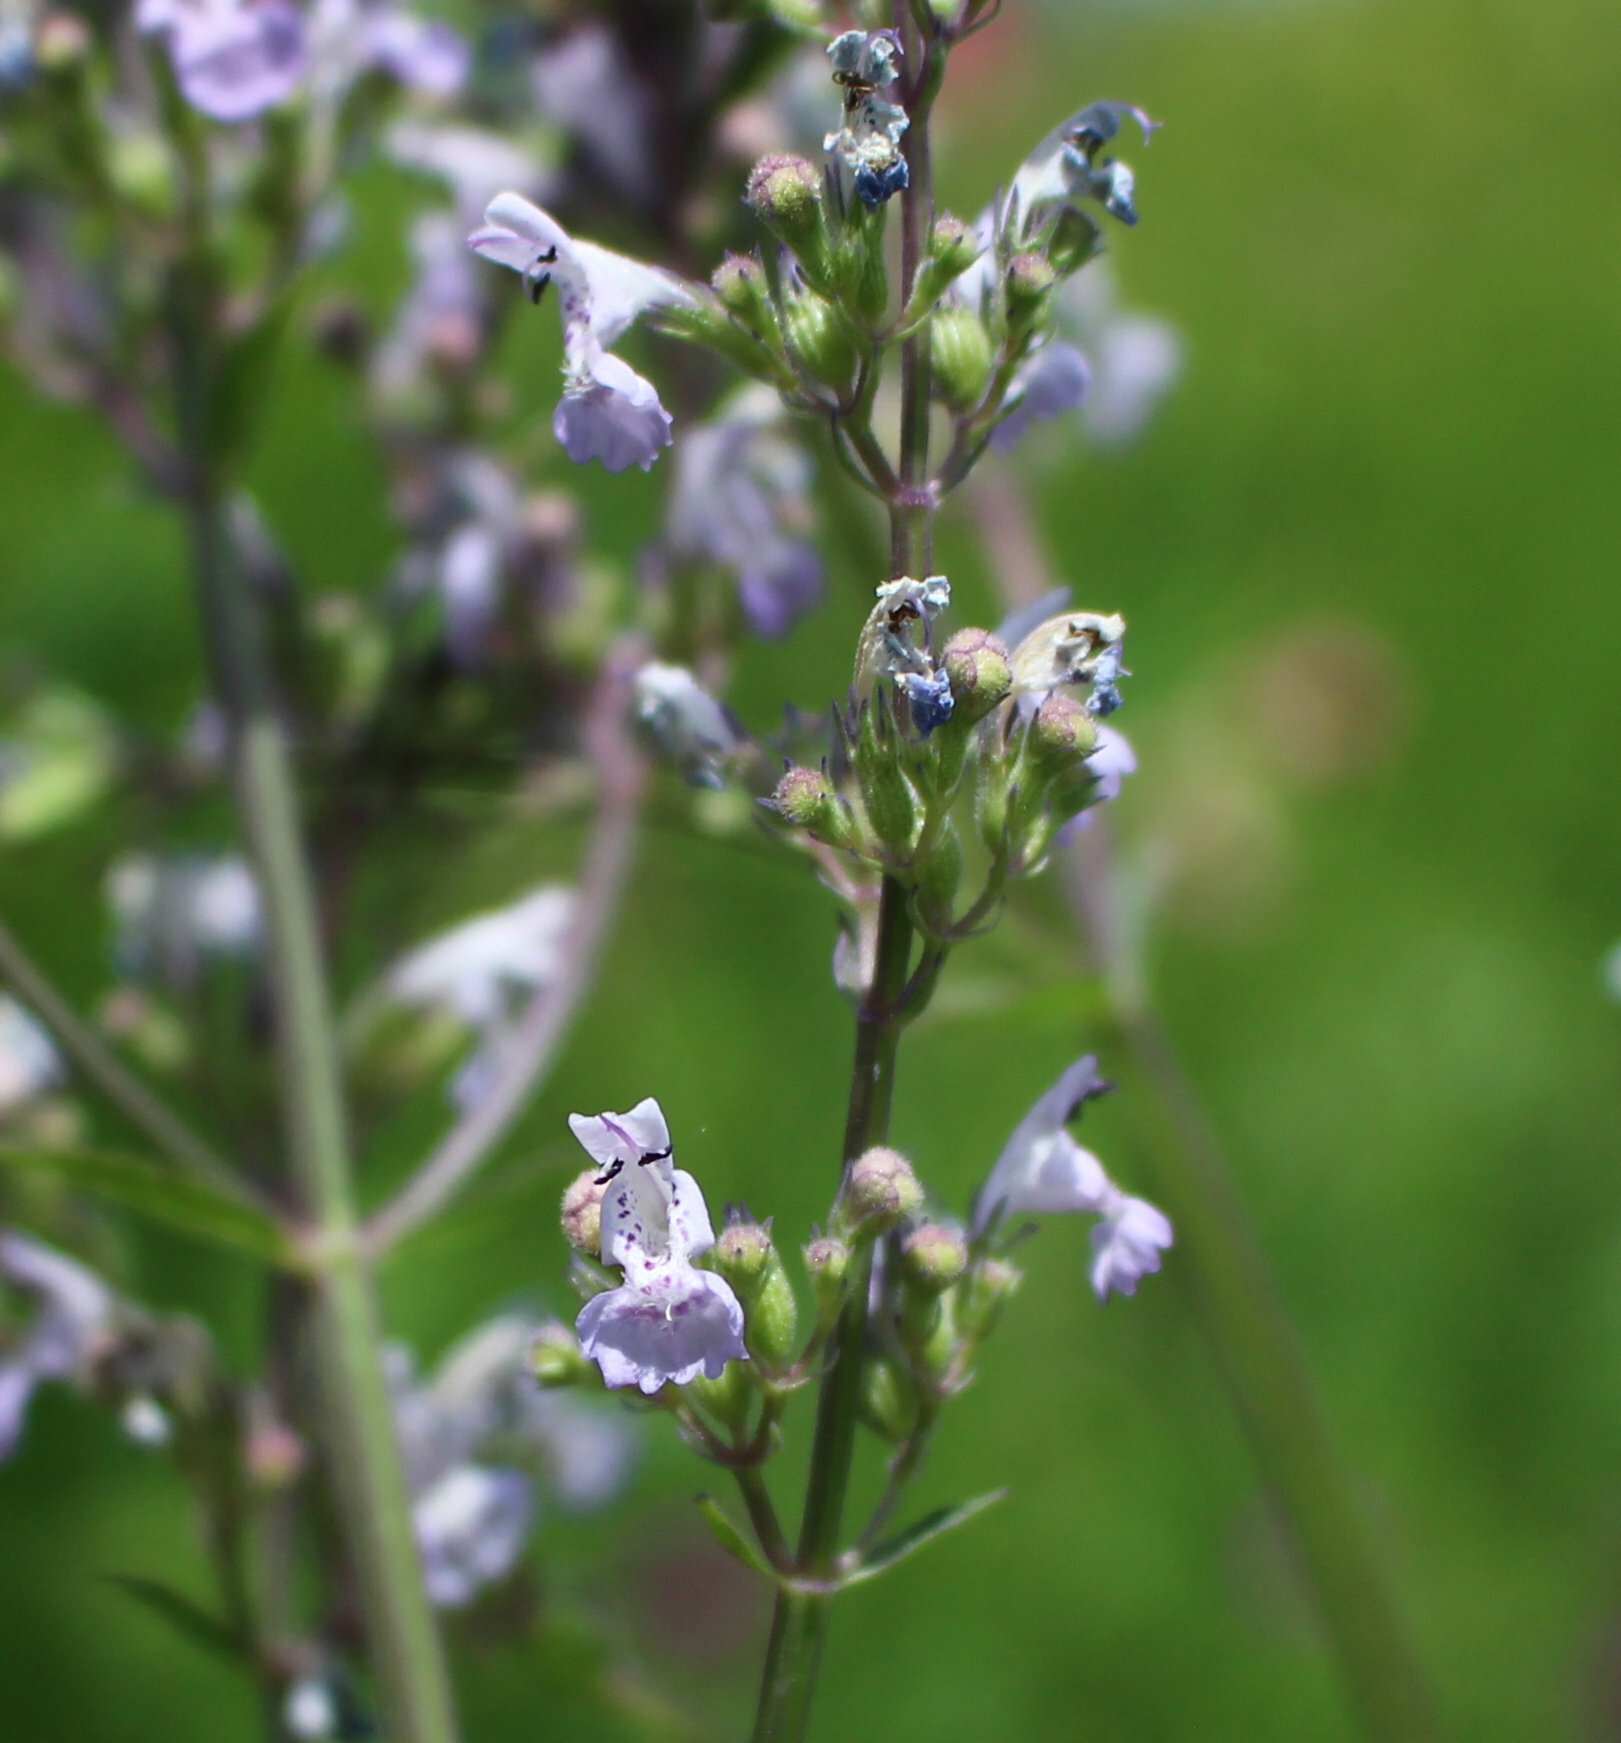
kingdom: Plantae
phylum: Tracheophyta
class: Magnoliopsida
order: Lamiales
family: Lamiaceae
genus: Nepeta
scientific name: Nepeta nuda
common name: Hairless catmint
